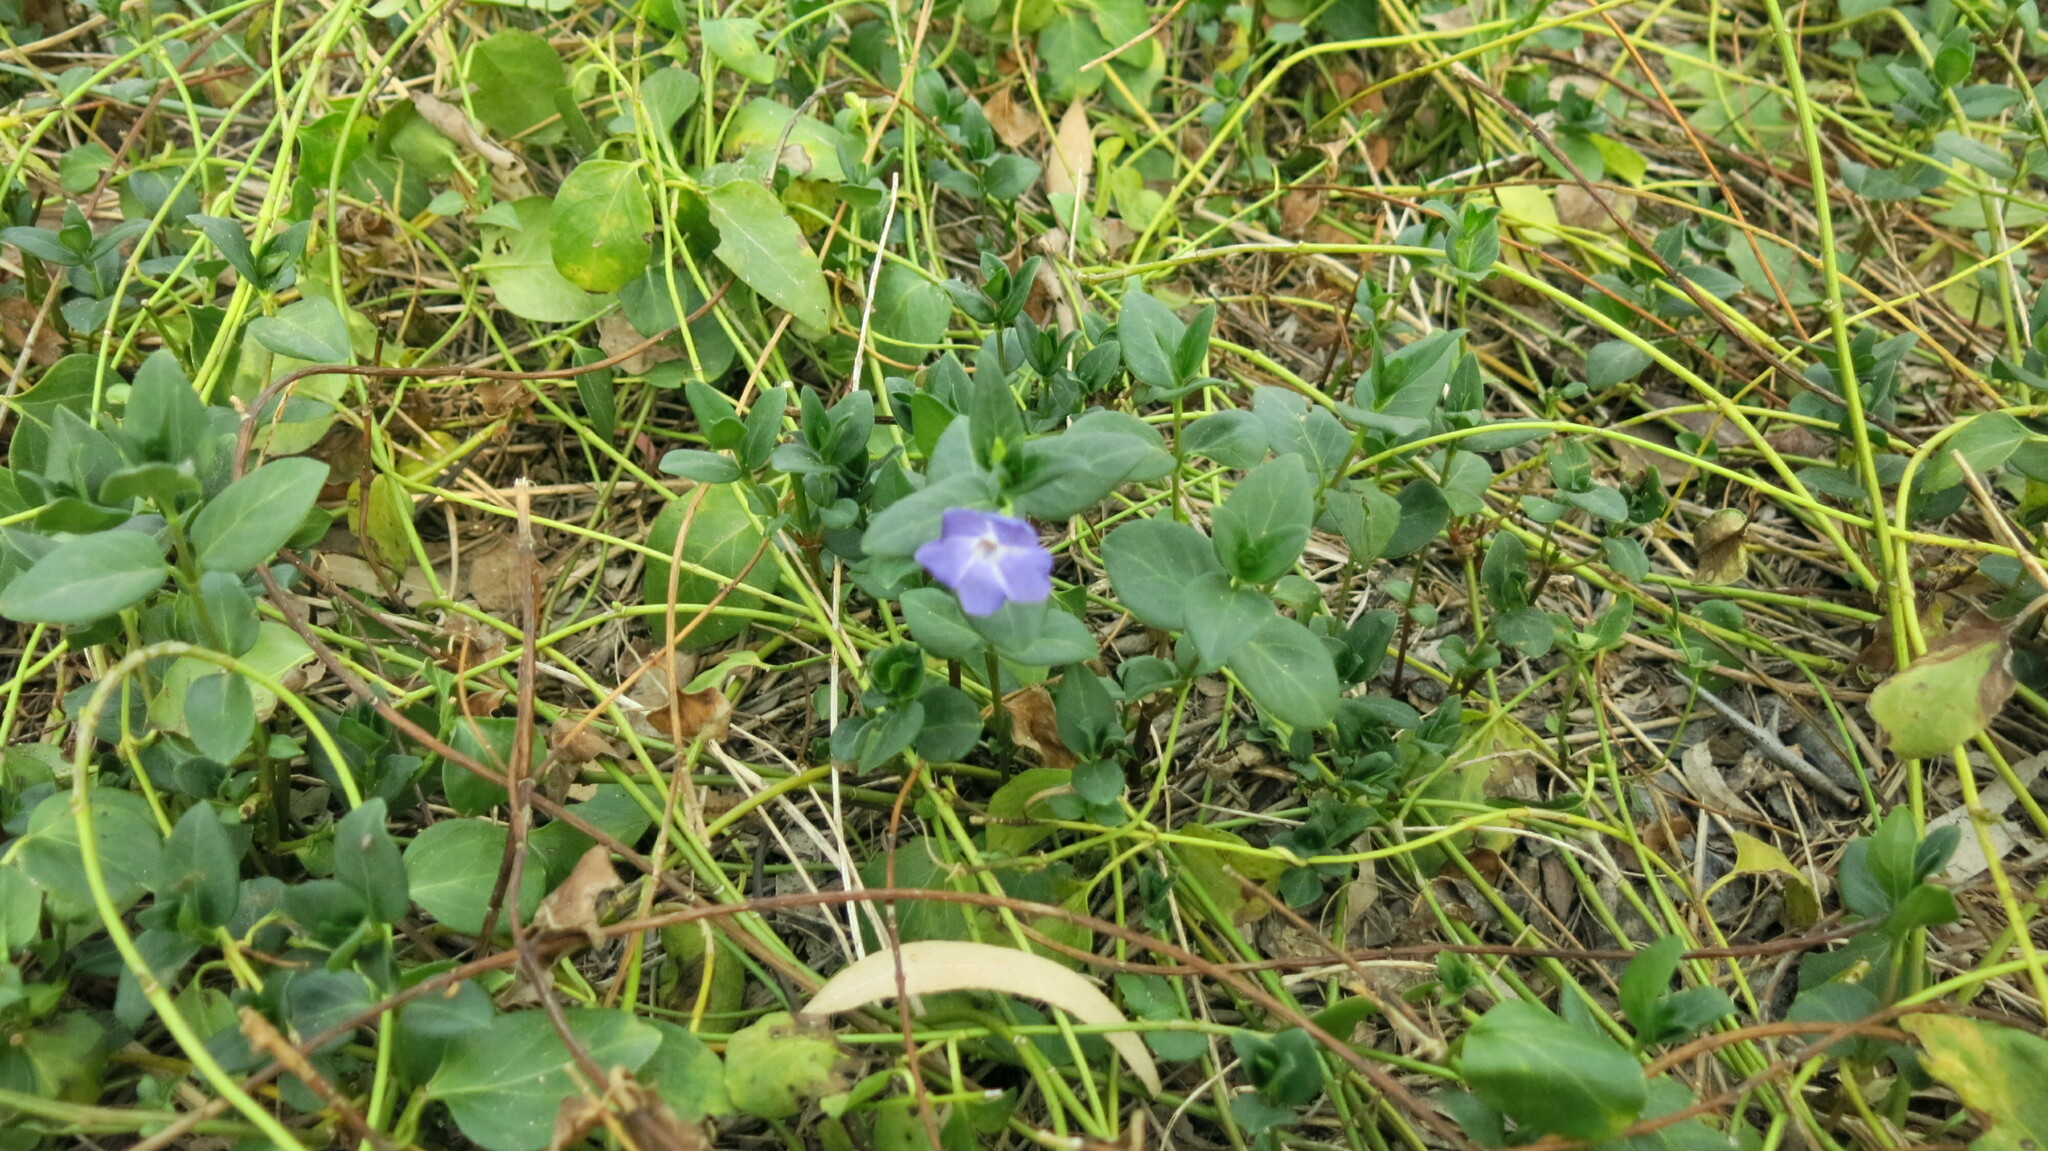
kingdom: Plantae
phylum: Tracheophyta
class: Magnoliopsida
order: Gentianales
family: Apocynaceae
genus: Vinca
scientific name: Vinca major
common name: Greater periwinkle
